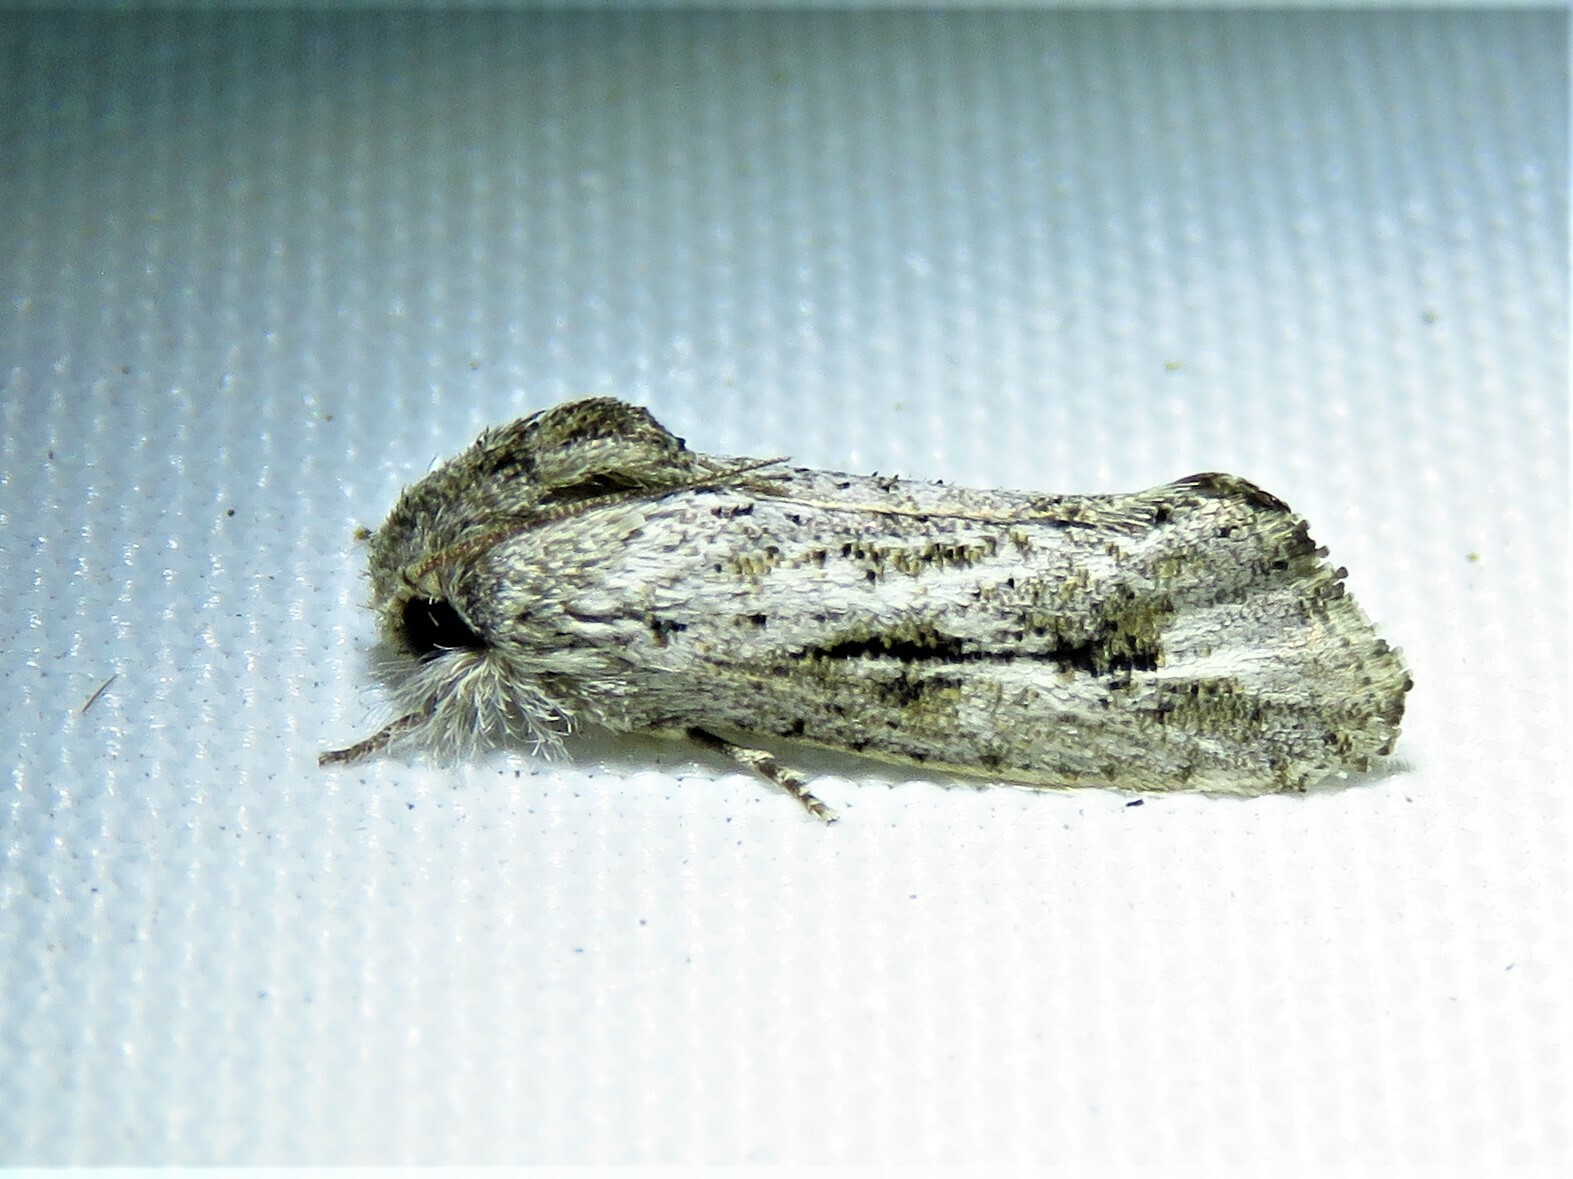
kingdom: Animalia
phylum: Arthropoda
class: Insecta
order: Lepidoptera
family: Tineidae
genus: Acrolophus
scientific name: Acrolophus griseus
